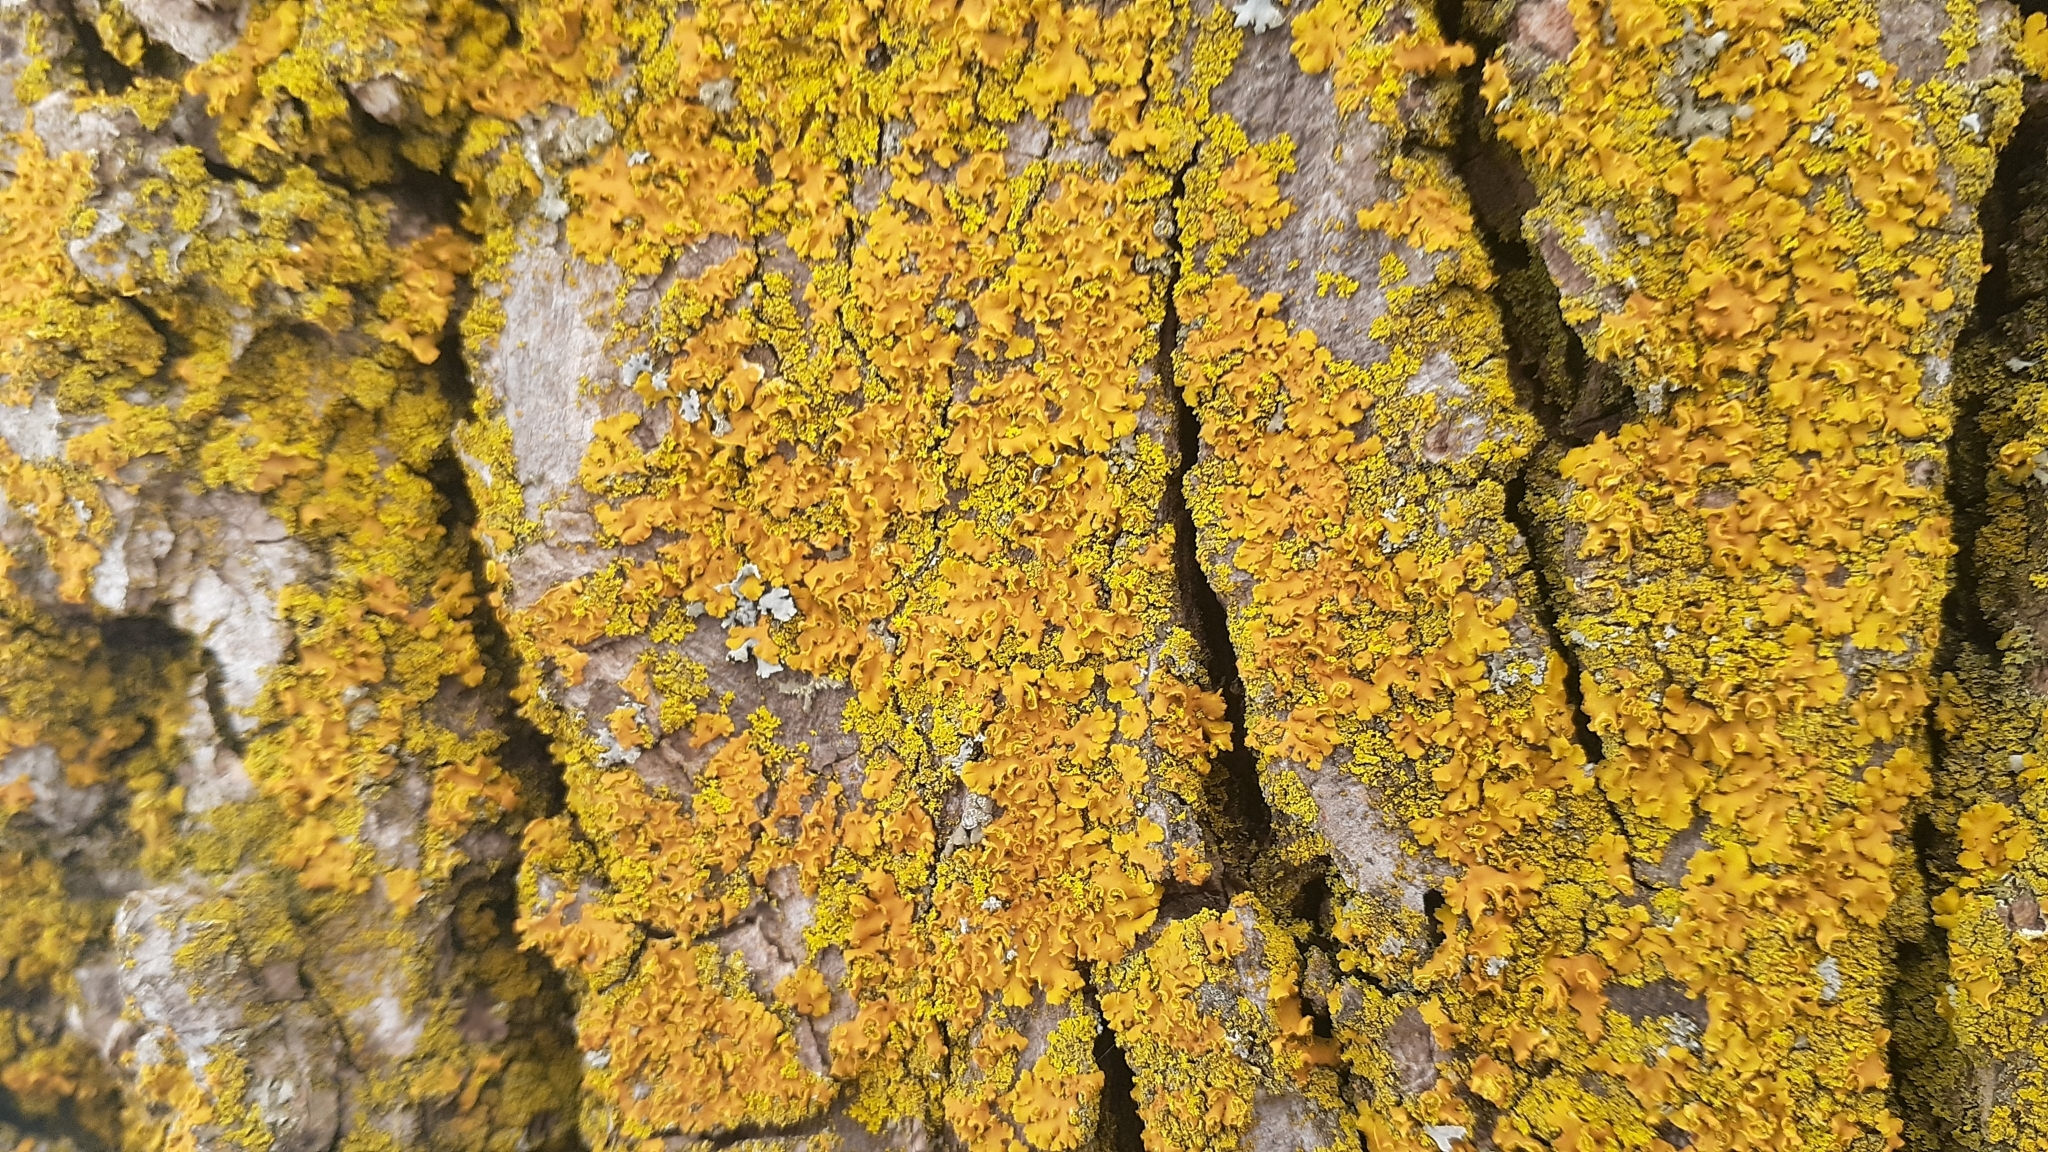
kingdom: Fungi
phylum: Ascomycota
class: Lecanoromycetes
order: Teloschistales
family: Teloschistaceae
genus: Oxneria
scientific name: Oxneria fallax
